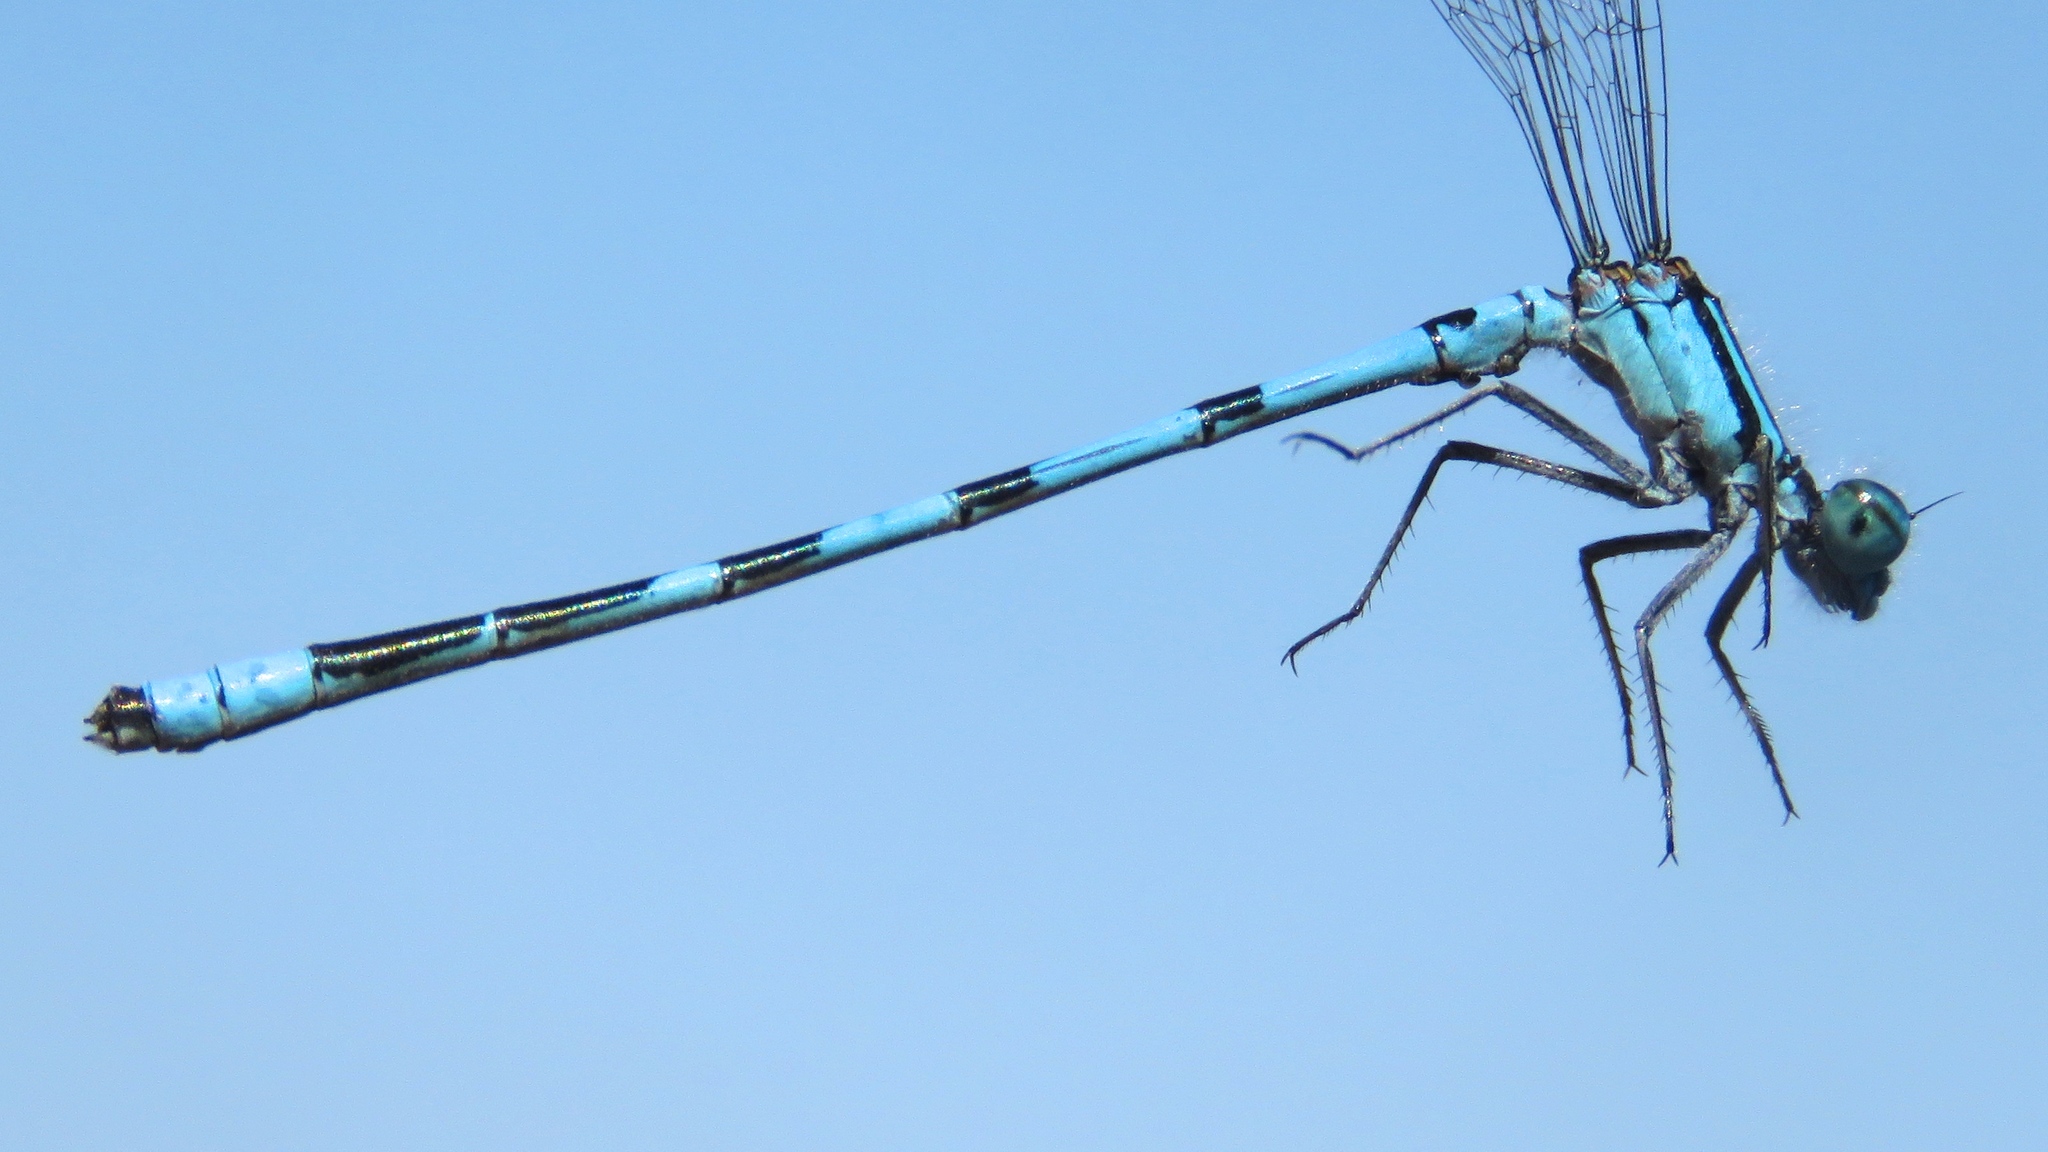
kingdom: Animalia
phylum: Arthropoda
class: Insecta
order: Odonata
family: Coenagrionidae
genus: Enallagma
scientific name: Enallagma hageni
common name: Hagen's bluet
